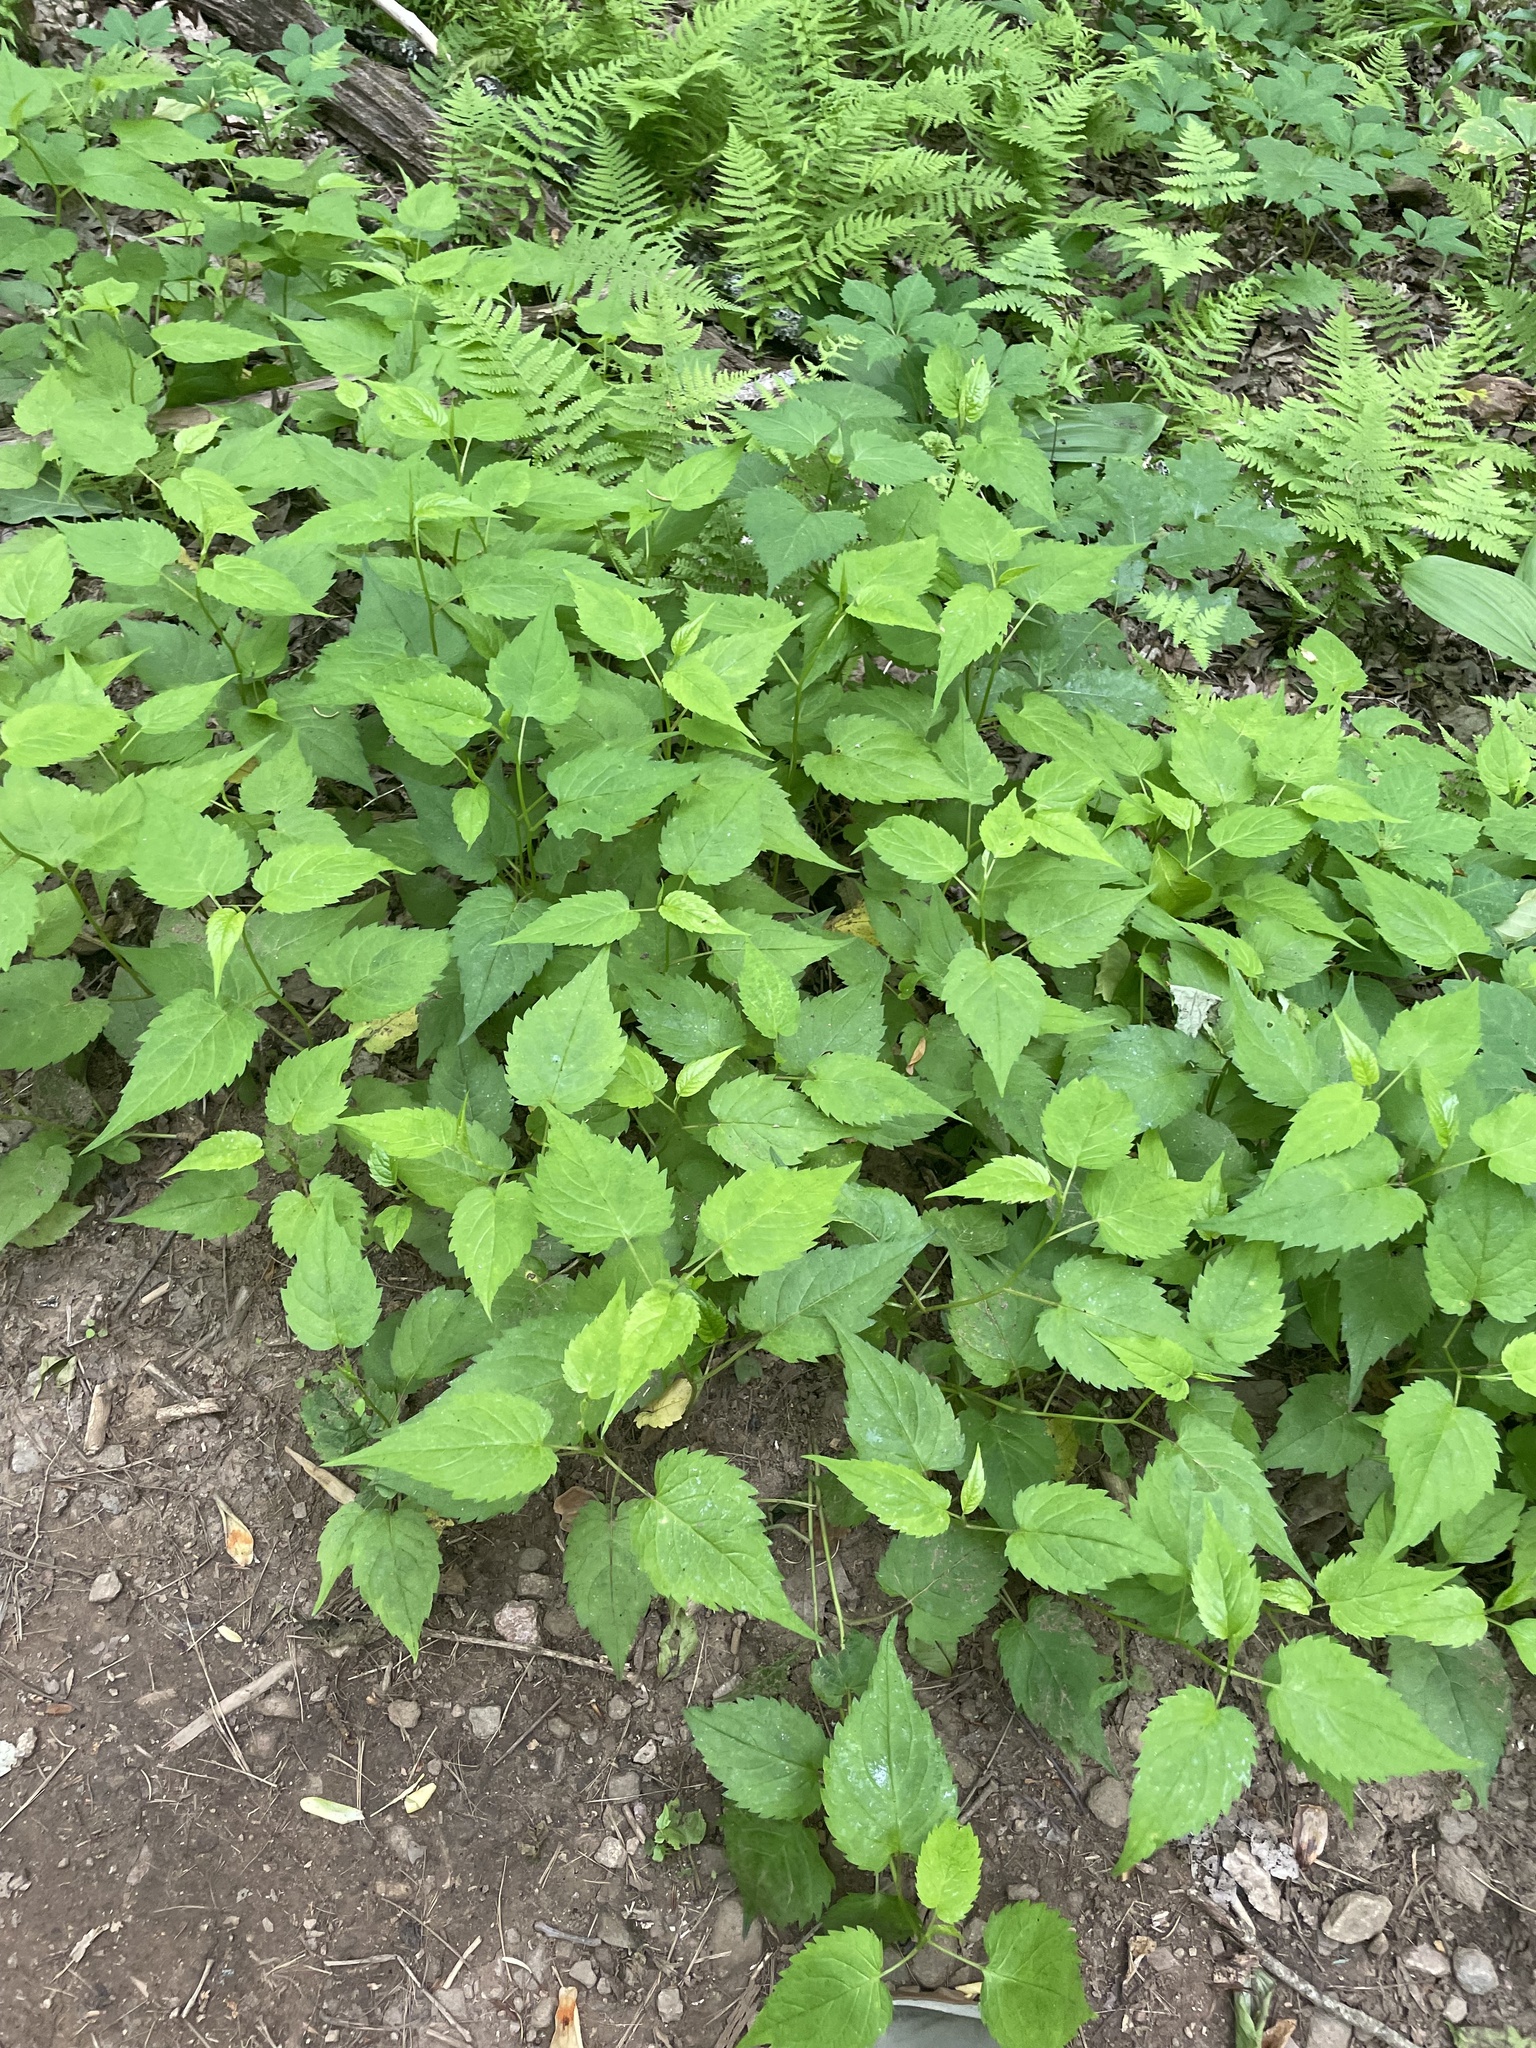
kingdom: Plantae
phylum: Tracheophyta
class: Magnoliopsida
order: Asterales
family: Asteraceae
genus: Eurybia
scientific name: Eurybia divaricata
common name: White wood aster
